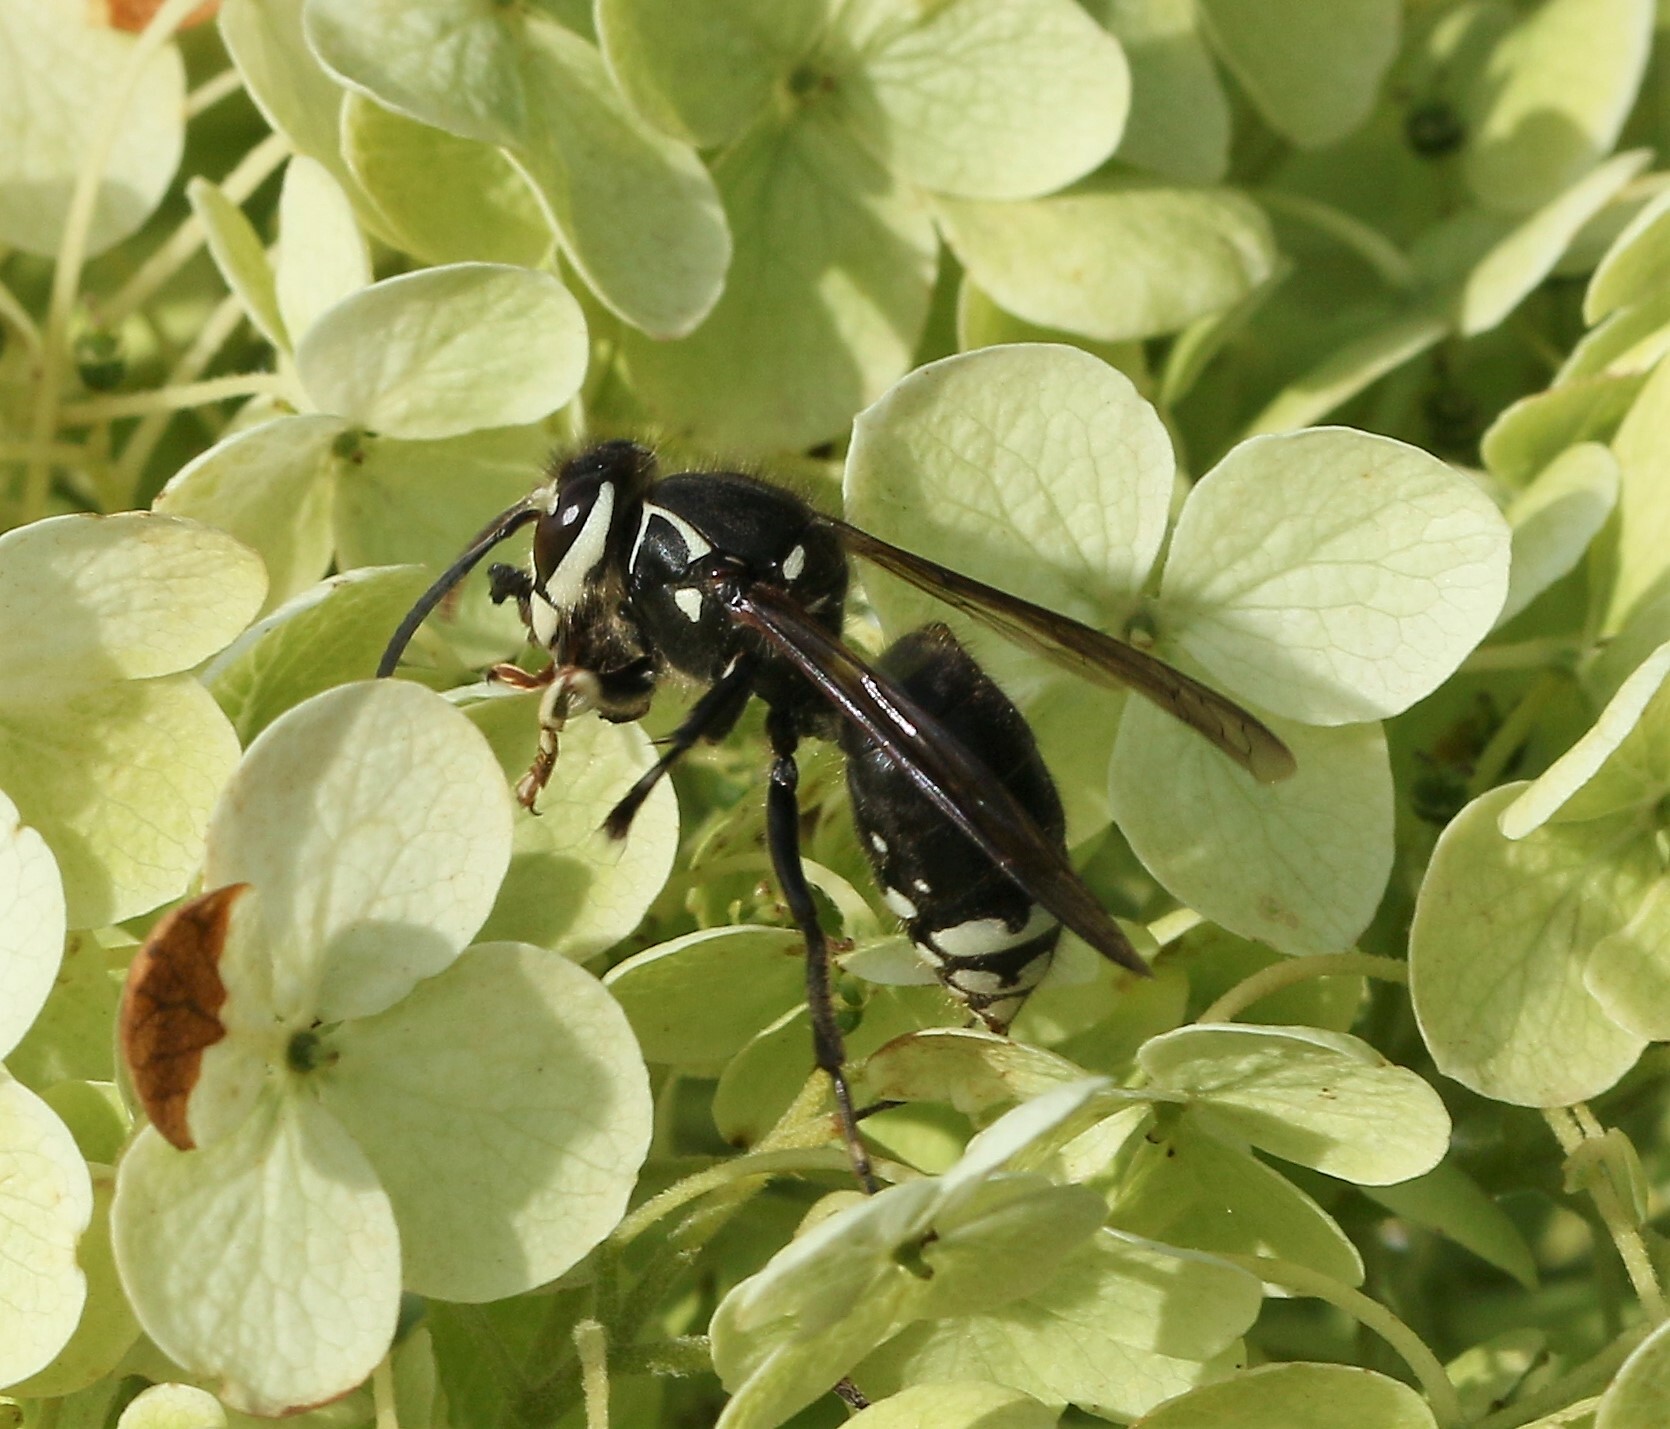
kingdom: Animalia
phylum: Arthropoda
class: Insecta
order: Hymenoptera
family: Vespidae
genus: Dolichovespula
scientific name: Dolichovespula maculata
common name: Bald-faced hornet
